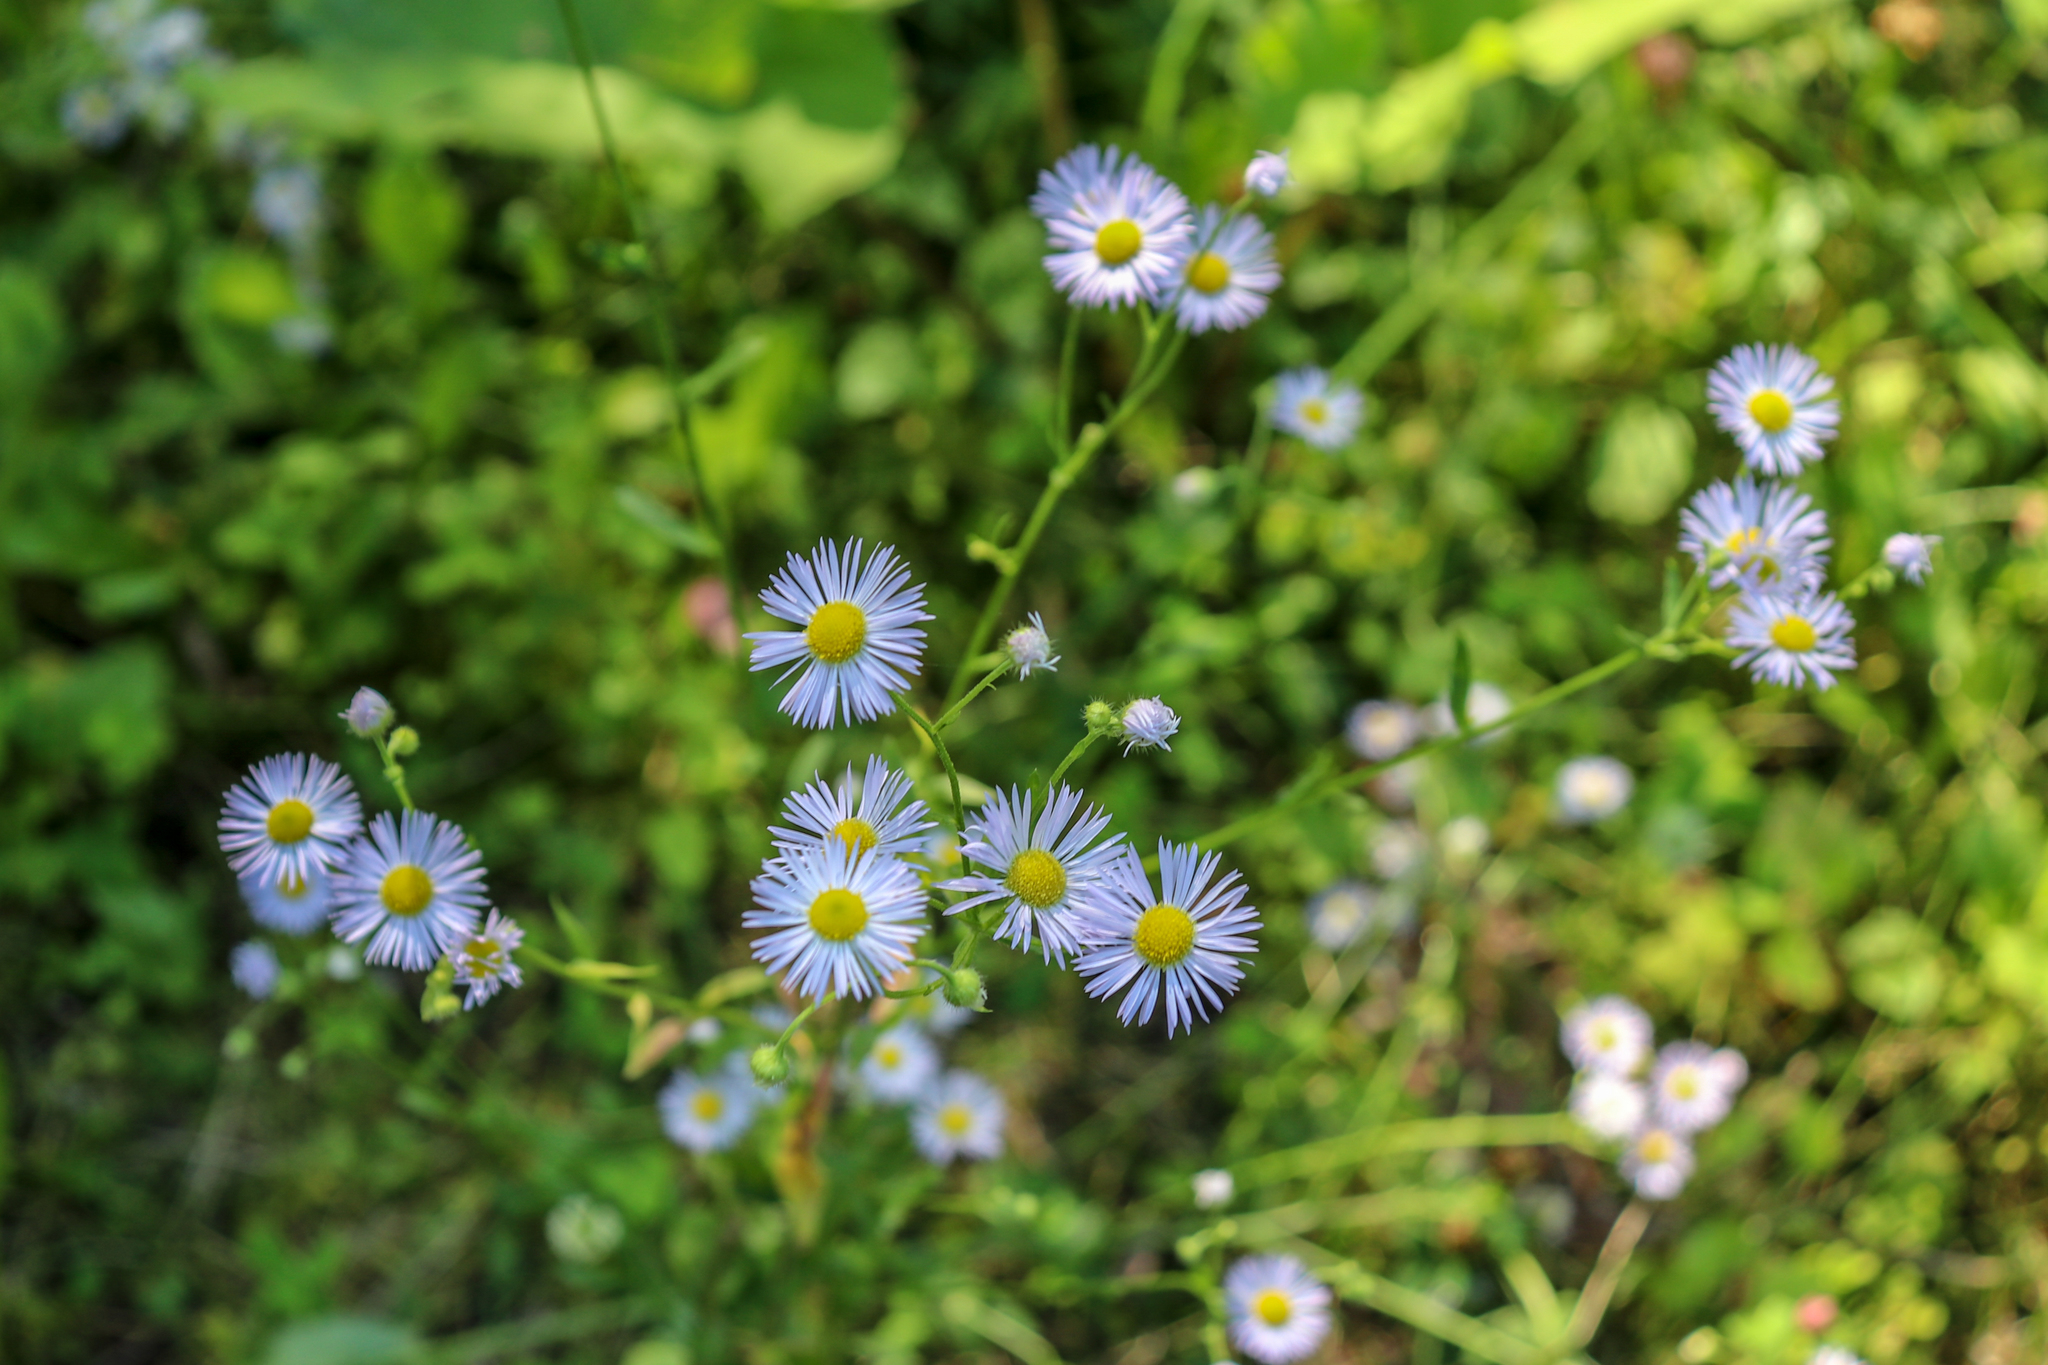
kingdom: Plantae
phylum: Tracheophyta
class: Magnoliopsida
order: Asterales
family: Asteraceae
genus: Erigeron
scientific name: Erigeron annuus
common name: Tall fleabane
